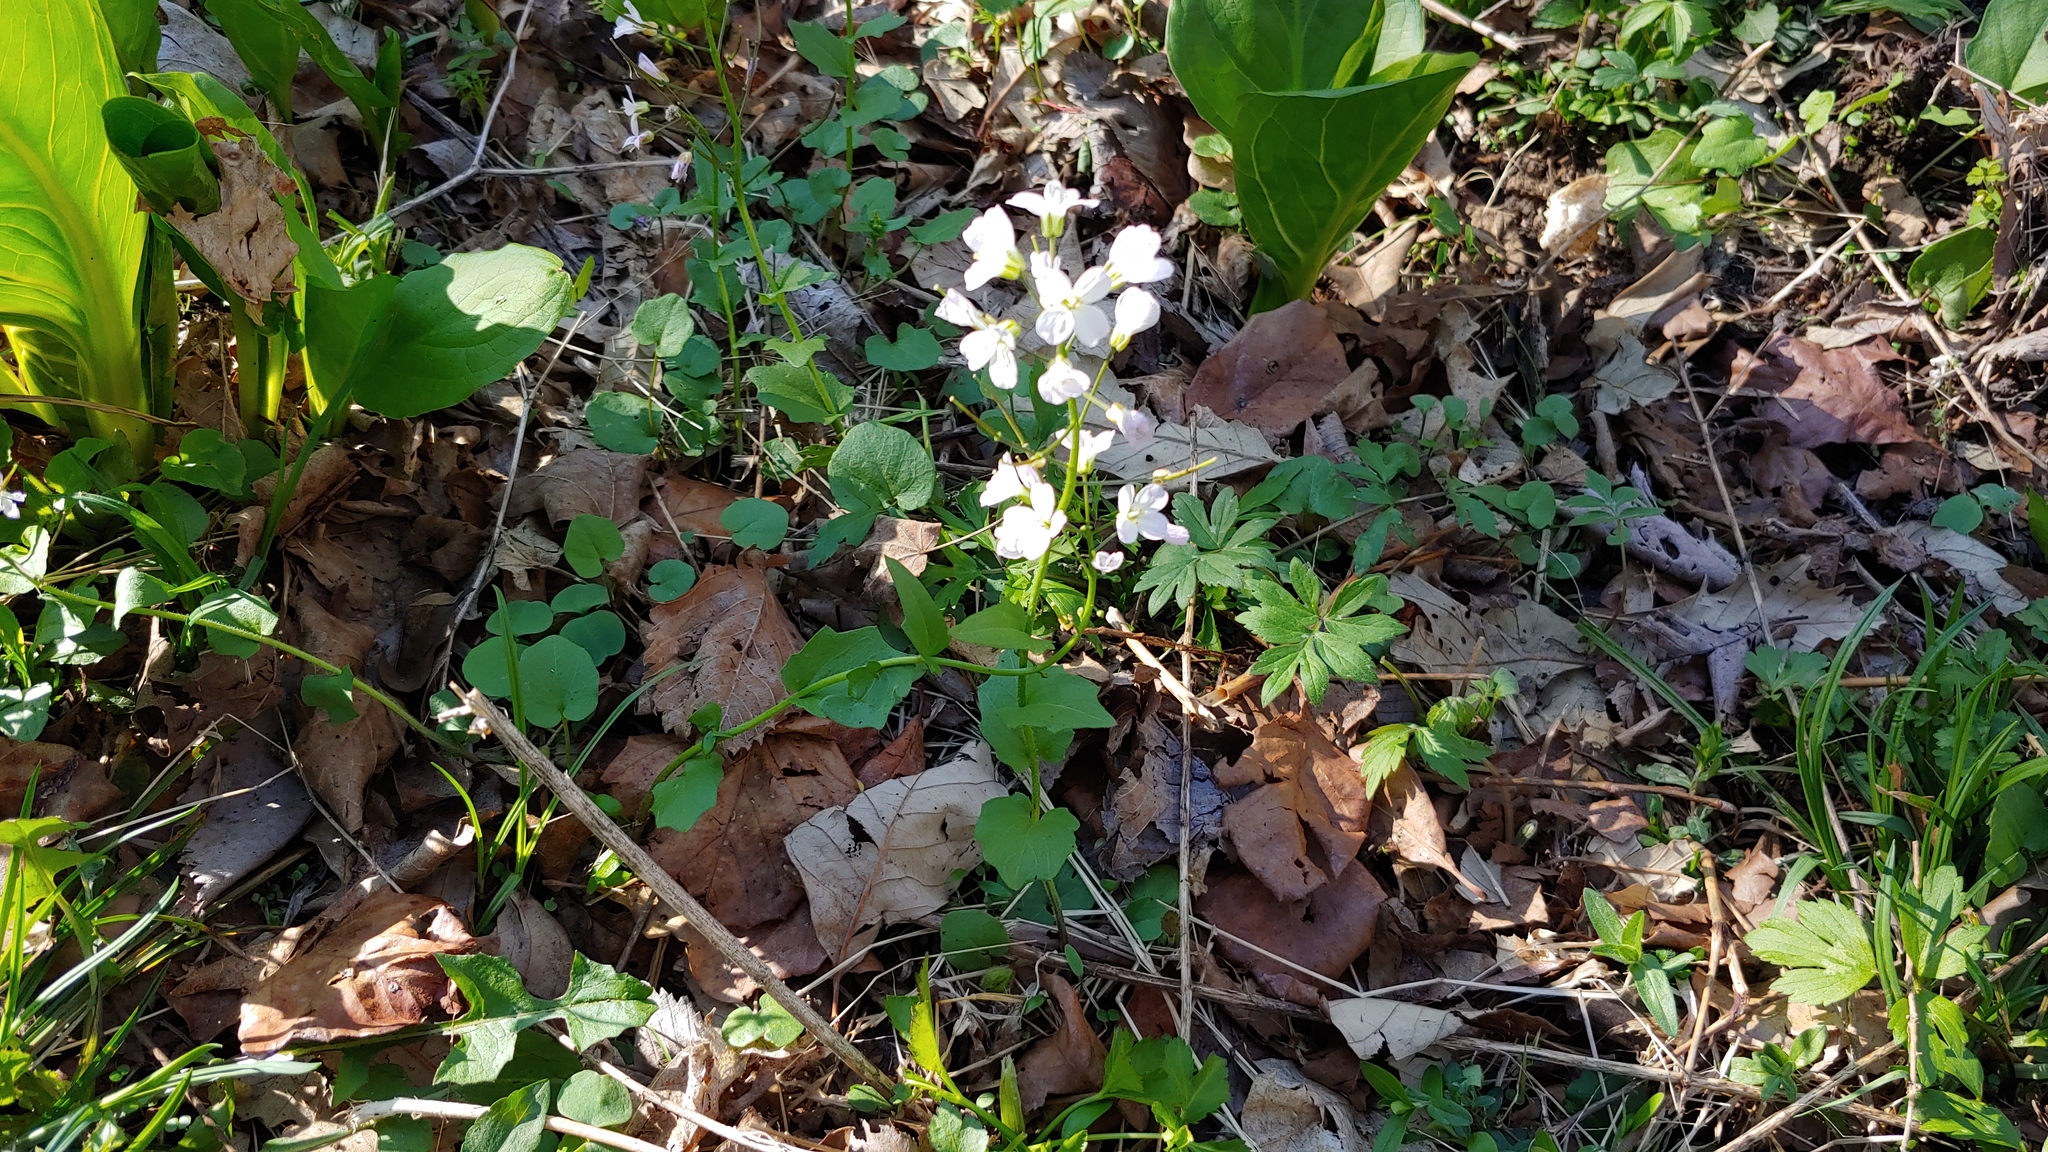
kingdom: Plantae
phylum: Tracheophyta
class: Magnoliopsida
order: Brassicales
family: Brassicaceae
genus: Cardamine
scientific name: Cardamine douglassii
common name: Purple cress
